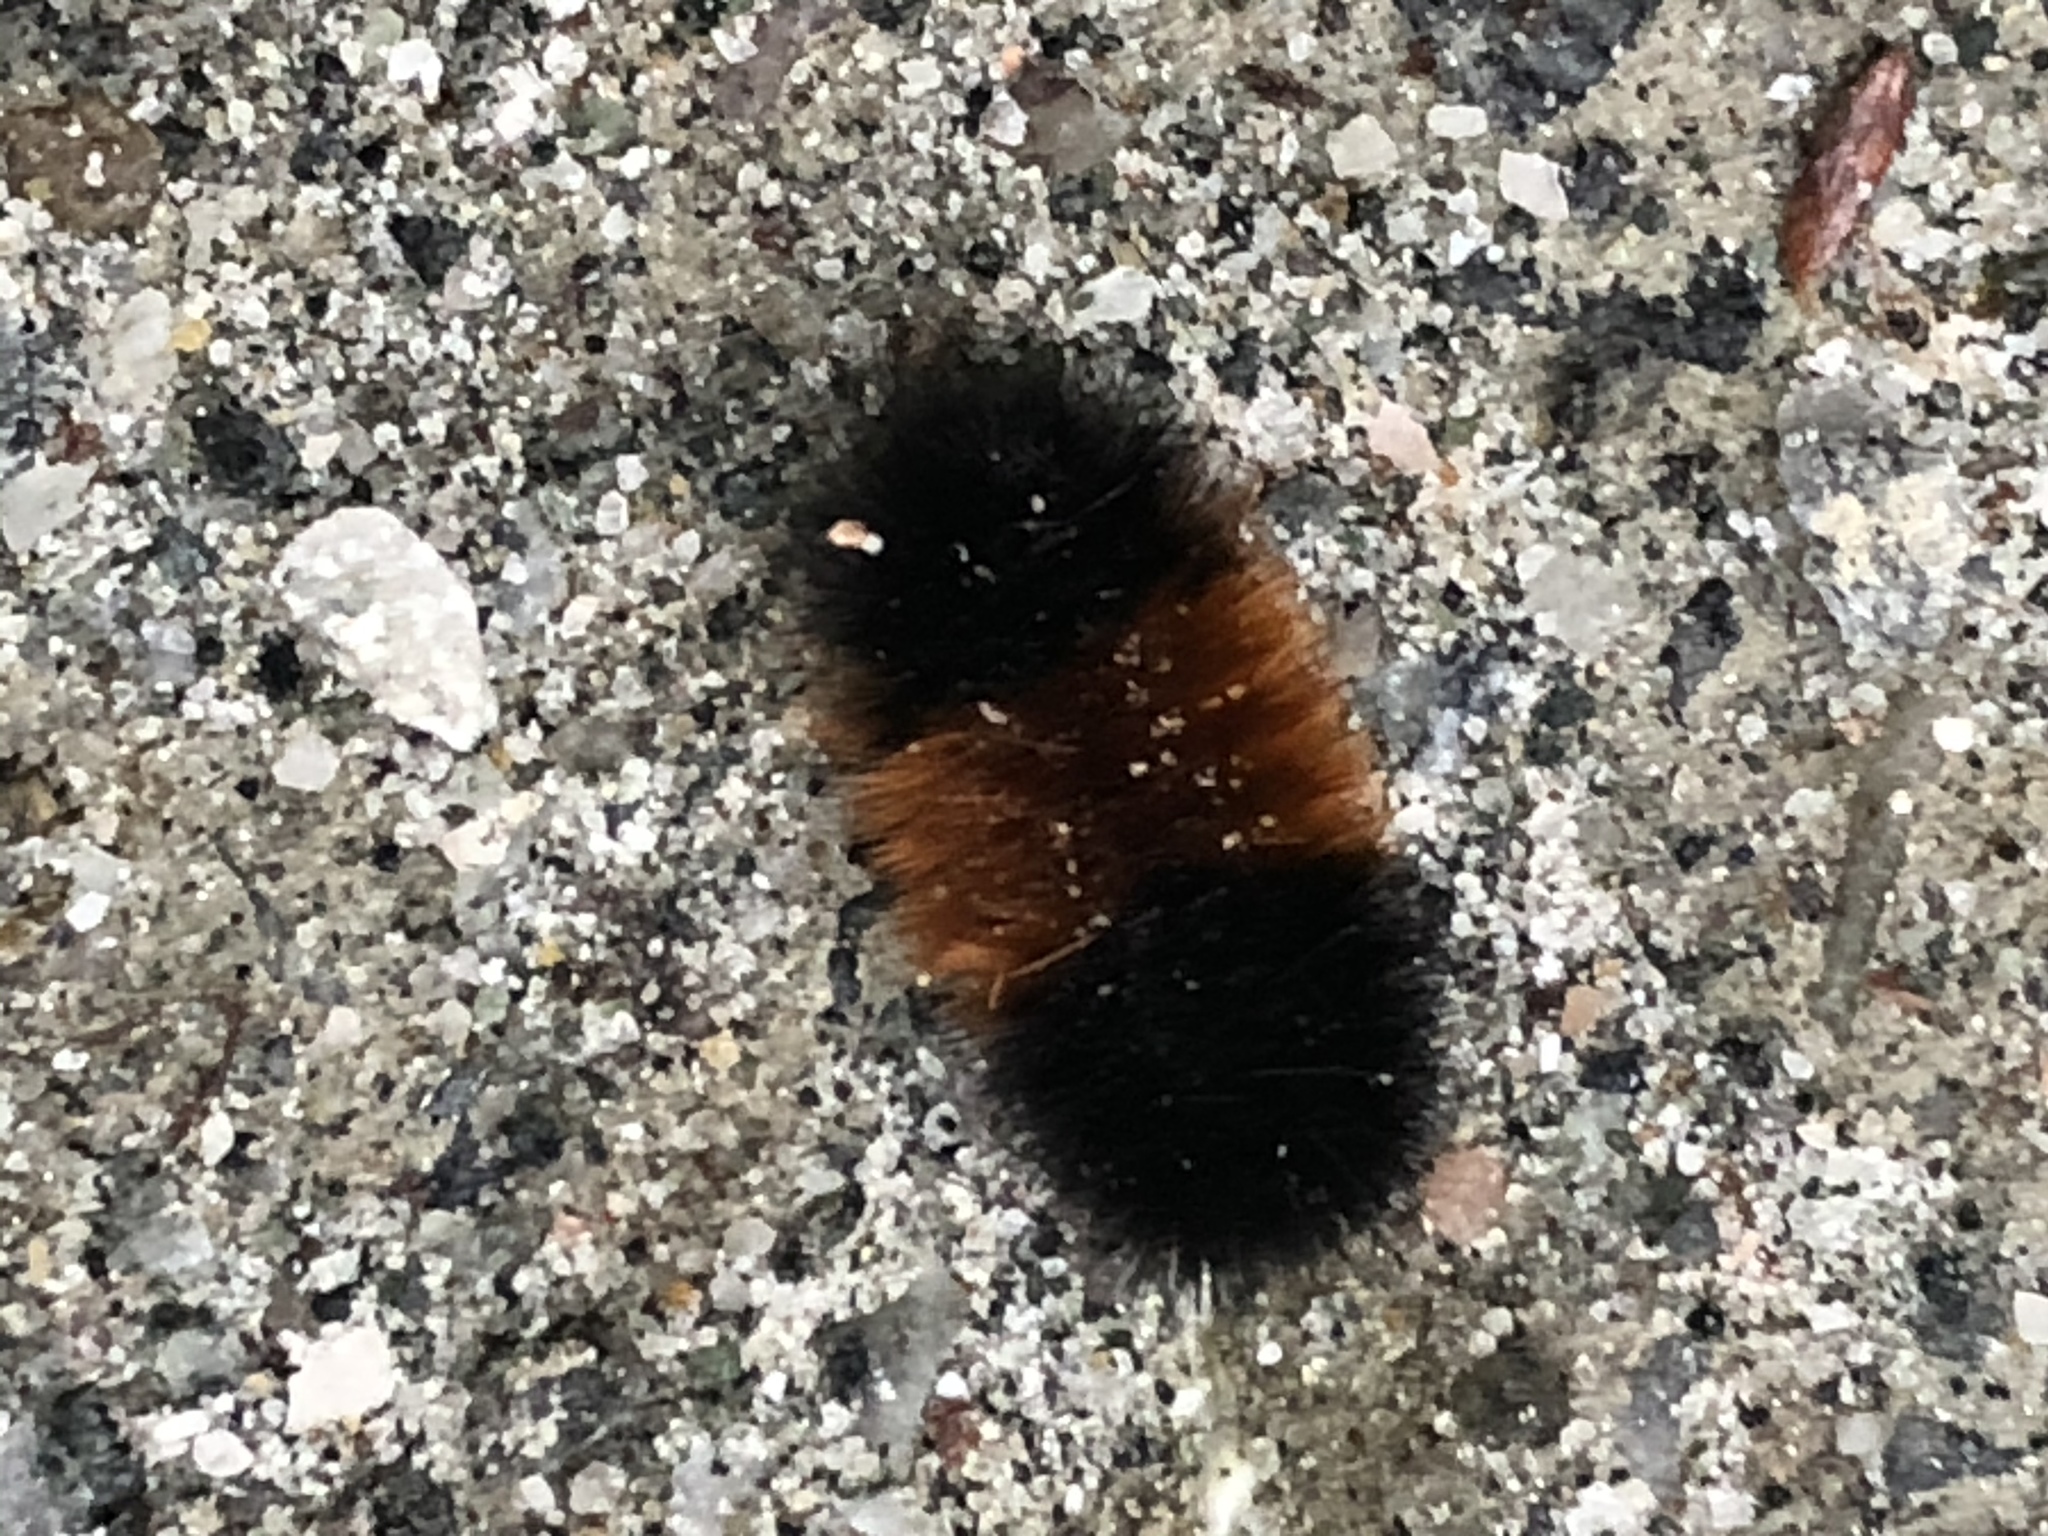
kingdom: Animalia
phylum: Arthropoda
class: Insecta
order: Lepidoptera
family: Erebidae
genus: Pyrrharctia
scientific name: Pyrrharctia isabella
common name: Isabella tiger moth
